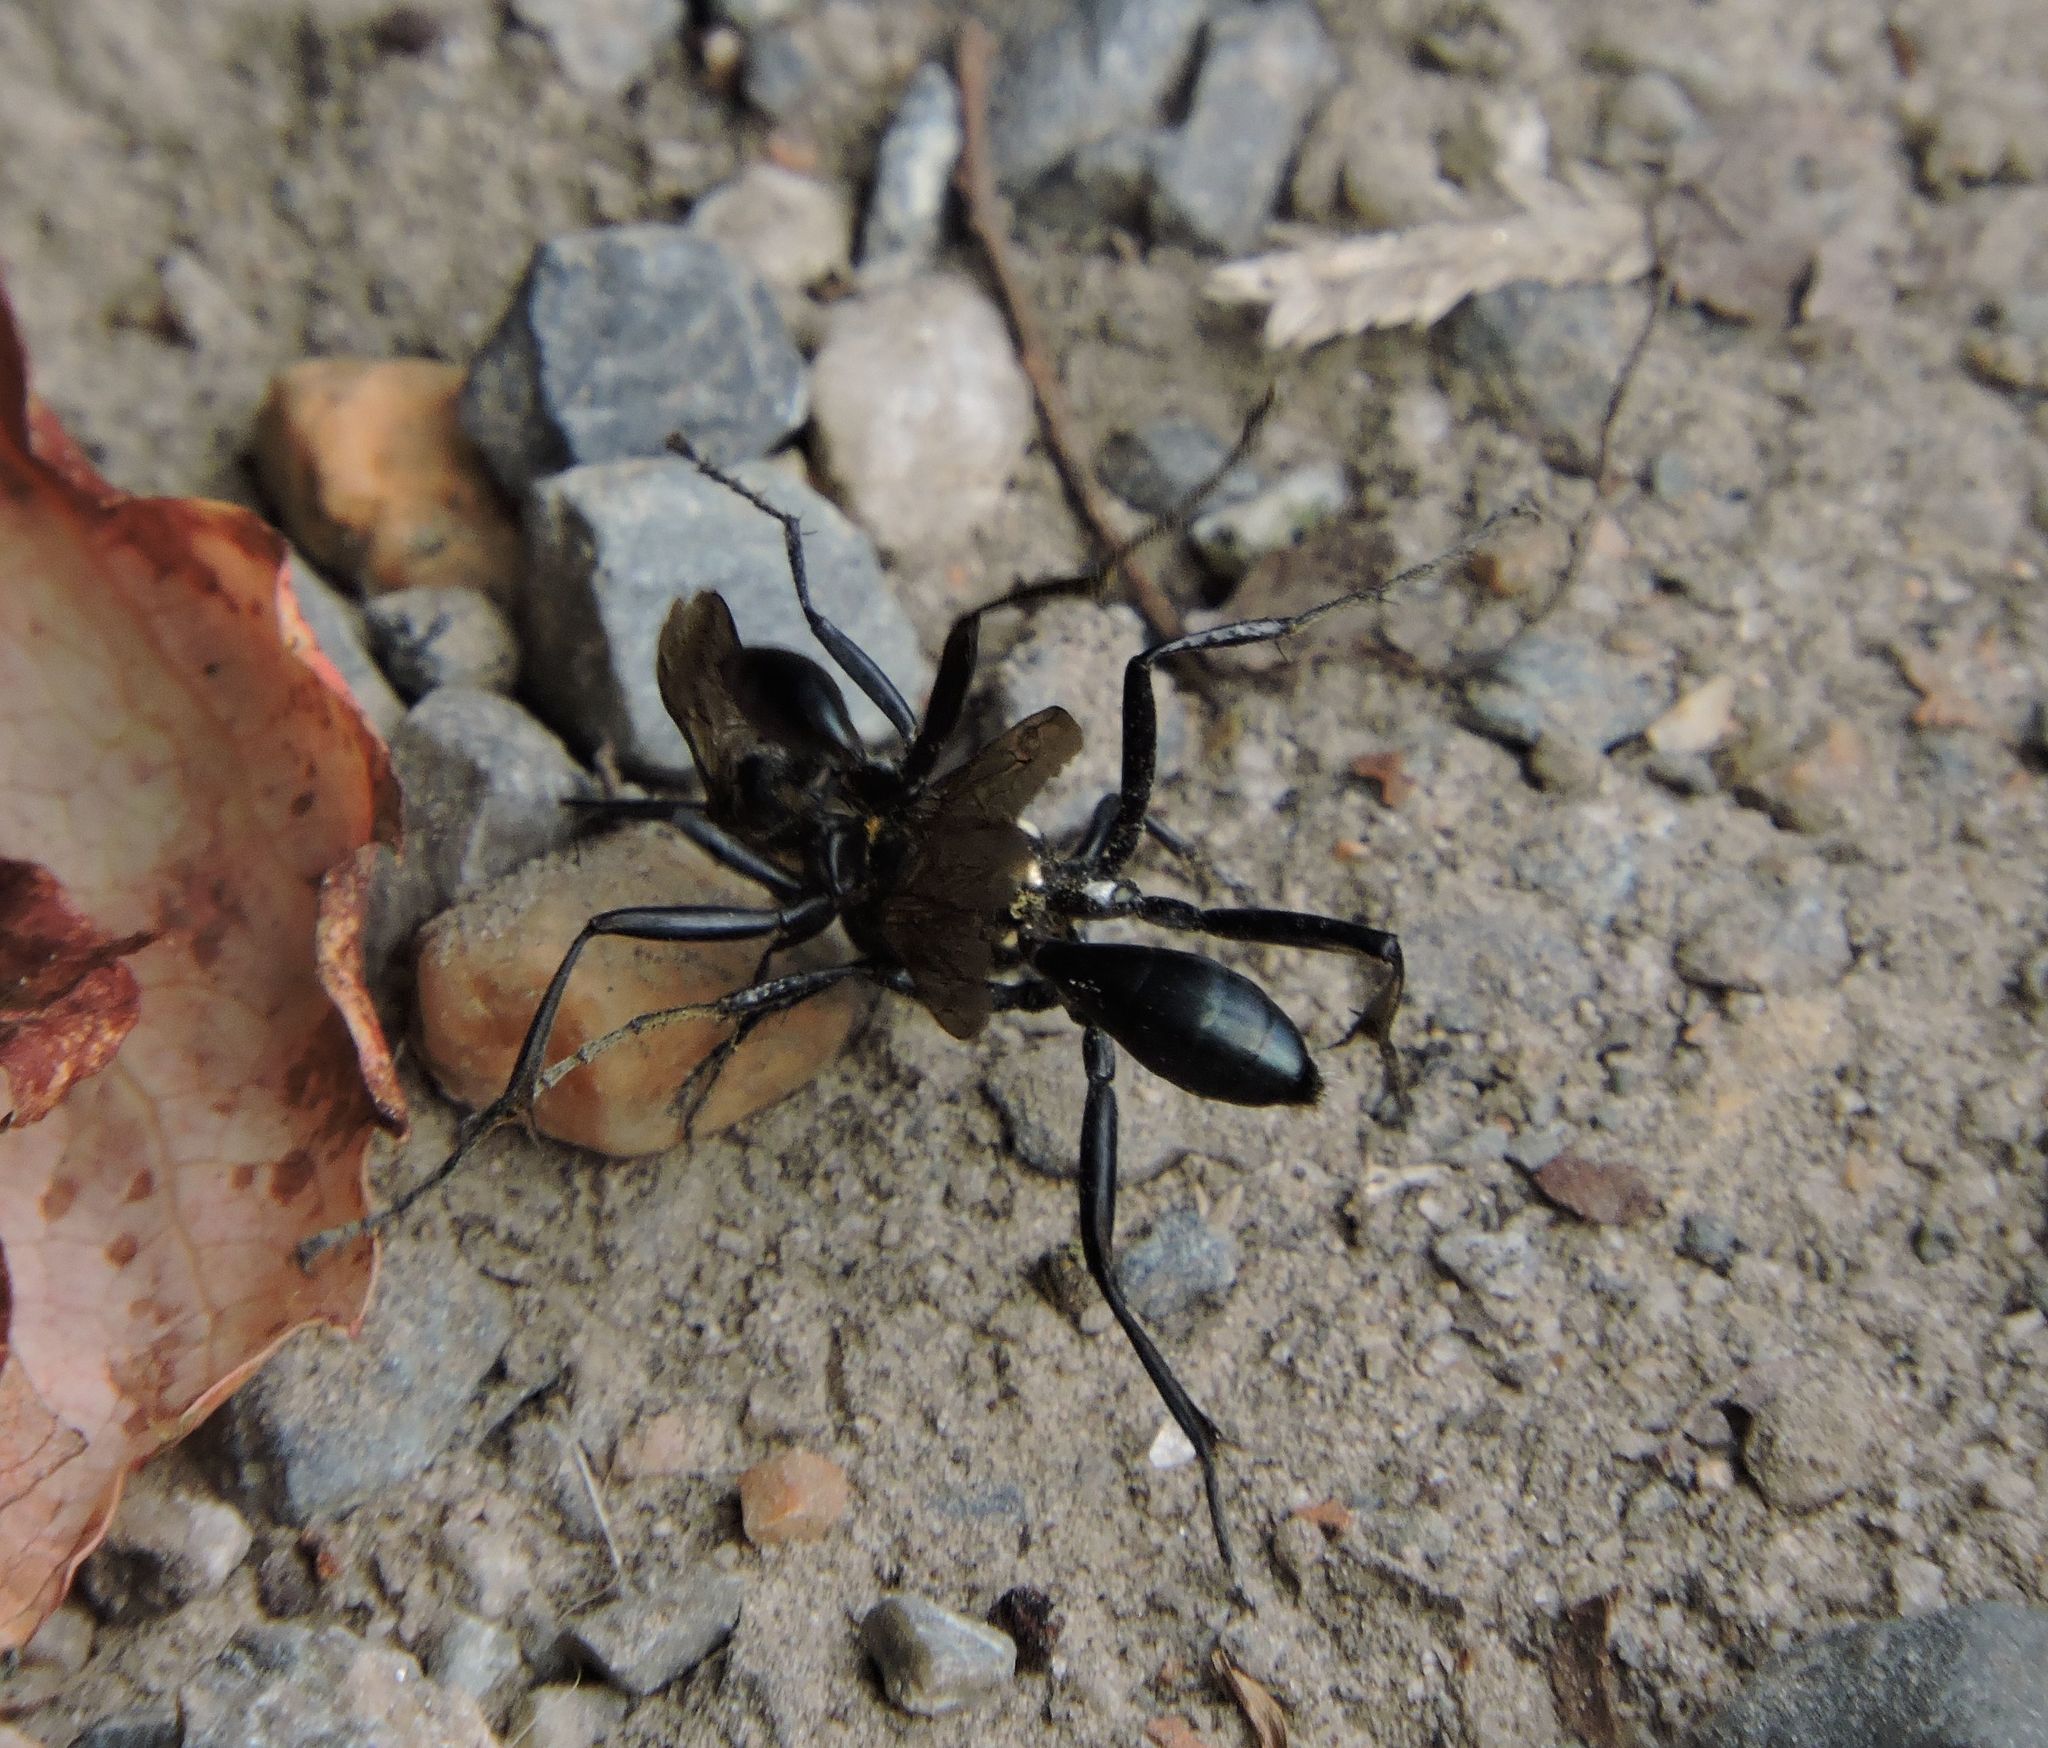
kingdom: Animalia
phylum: Arthropoda
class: Insecta
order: Hymenoptera
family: Sphecidae
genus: Eremnophila
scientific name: Eremnophila aureonotata
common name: Gold-marked thread-waisted wasp
